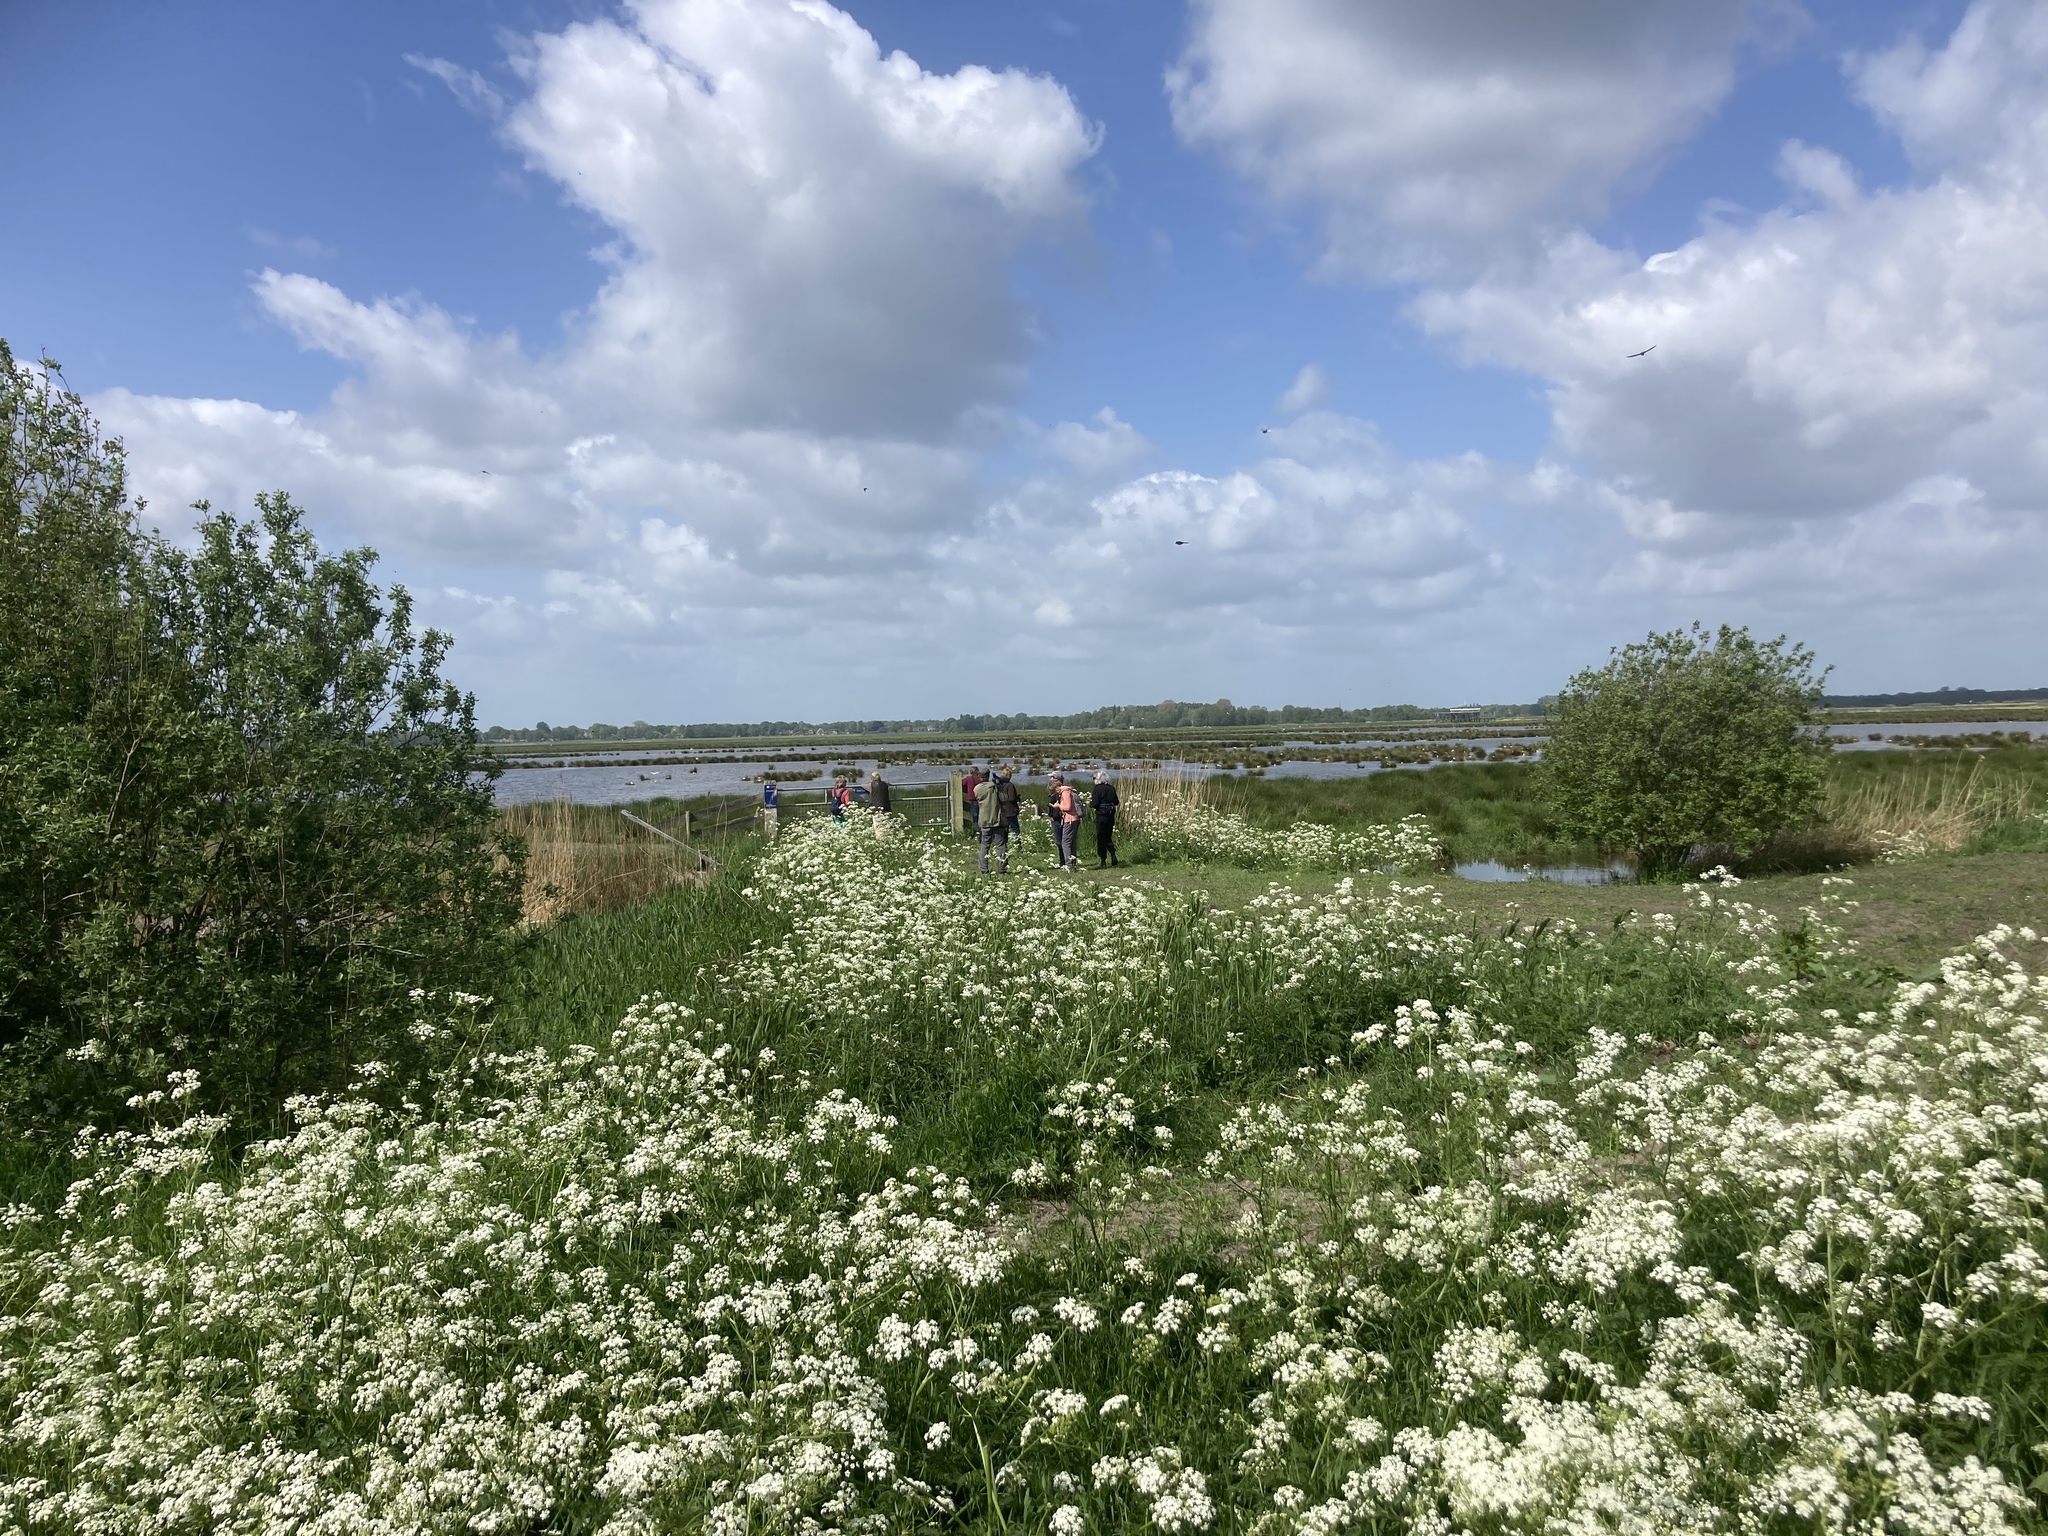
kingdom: Plantae
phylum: Tracheophyta
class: Magnoliopsida
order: Apiales
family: Apiaceae
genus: Anthriscus
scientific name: Anthriscus sylvestris
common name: Cow parsley
